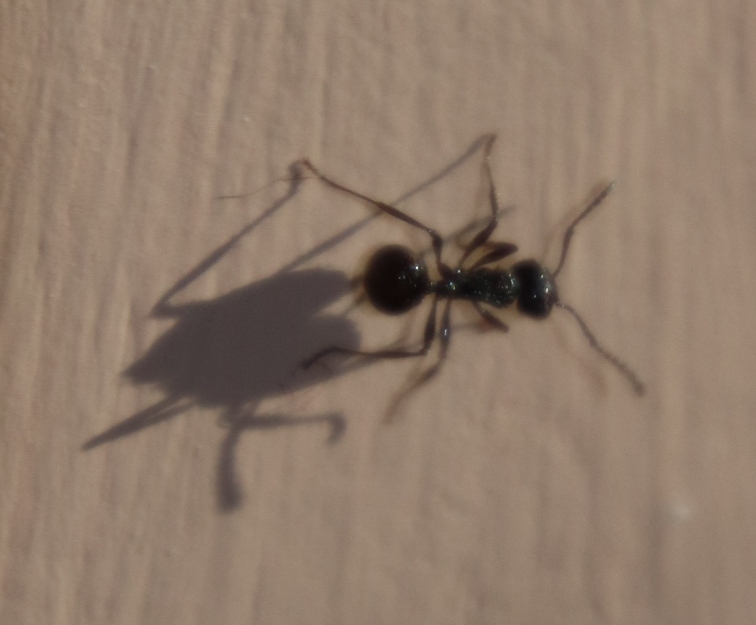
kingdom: Animalia
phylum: Arthropoda
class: Insecta
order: Hymenoptera
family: Formicidae
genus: Myrmicaria
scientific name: Myrmicaria nigra
